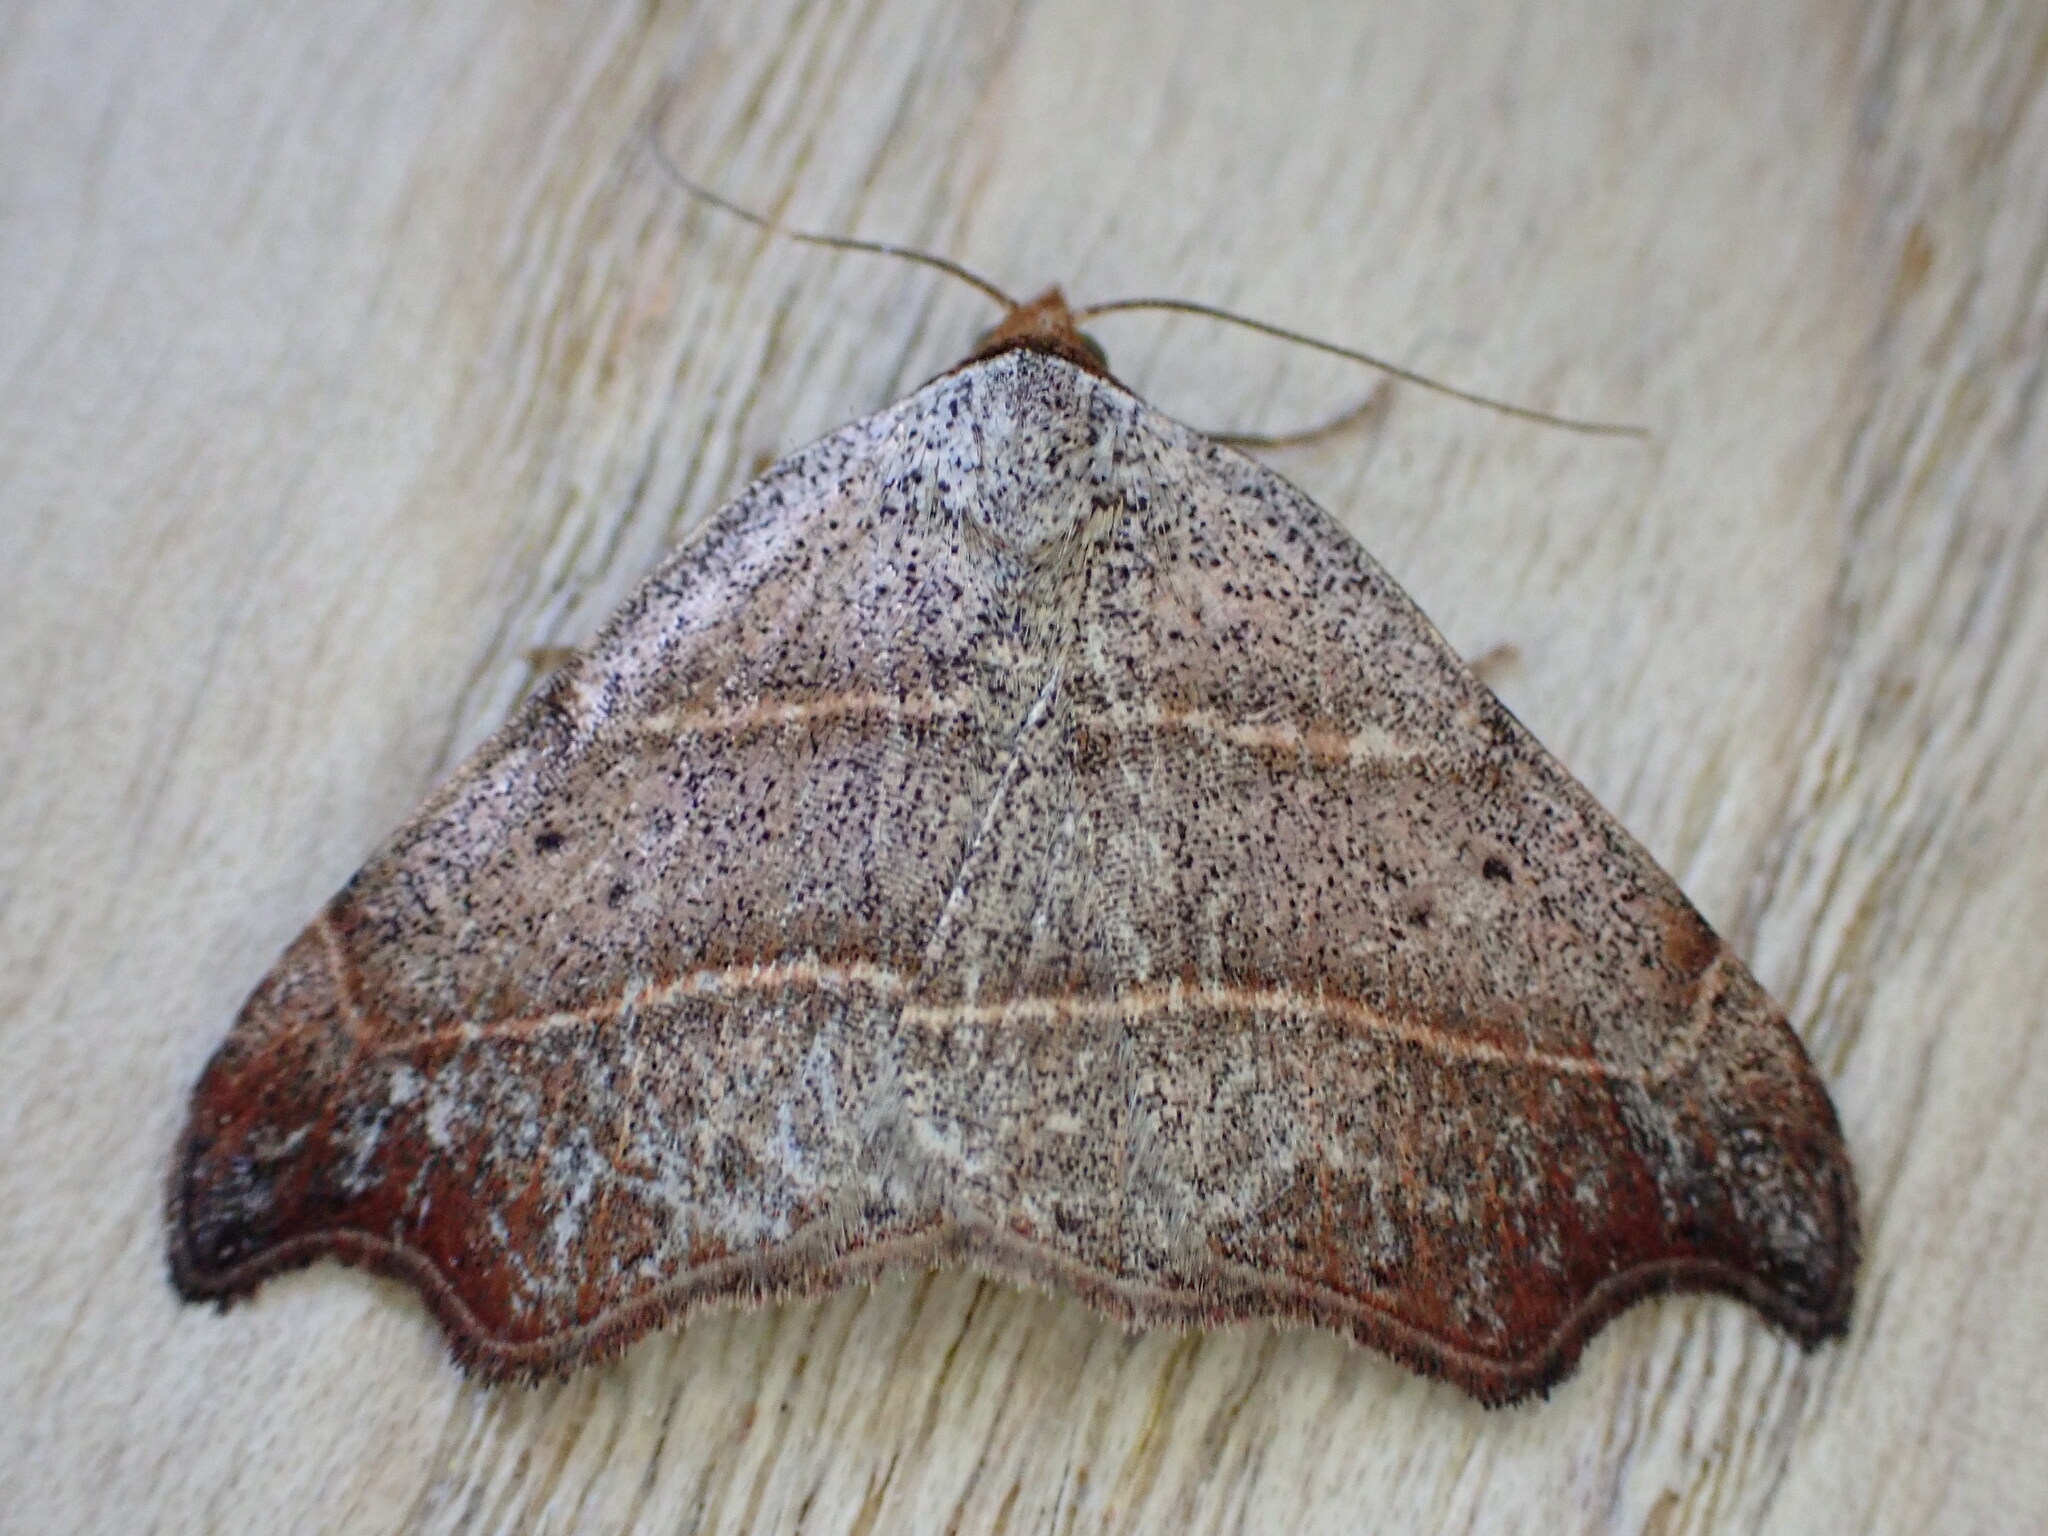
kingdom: Animalia
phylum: Arthropoda
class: Insecta
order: Lepidoptera
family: Erebidae
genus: Laspeyria
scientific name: Laspeyria flexula
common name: Beautiful hook-tip
